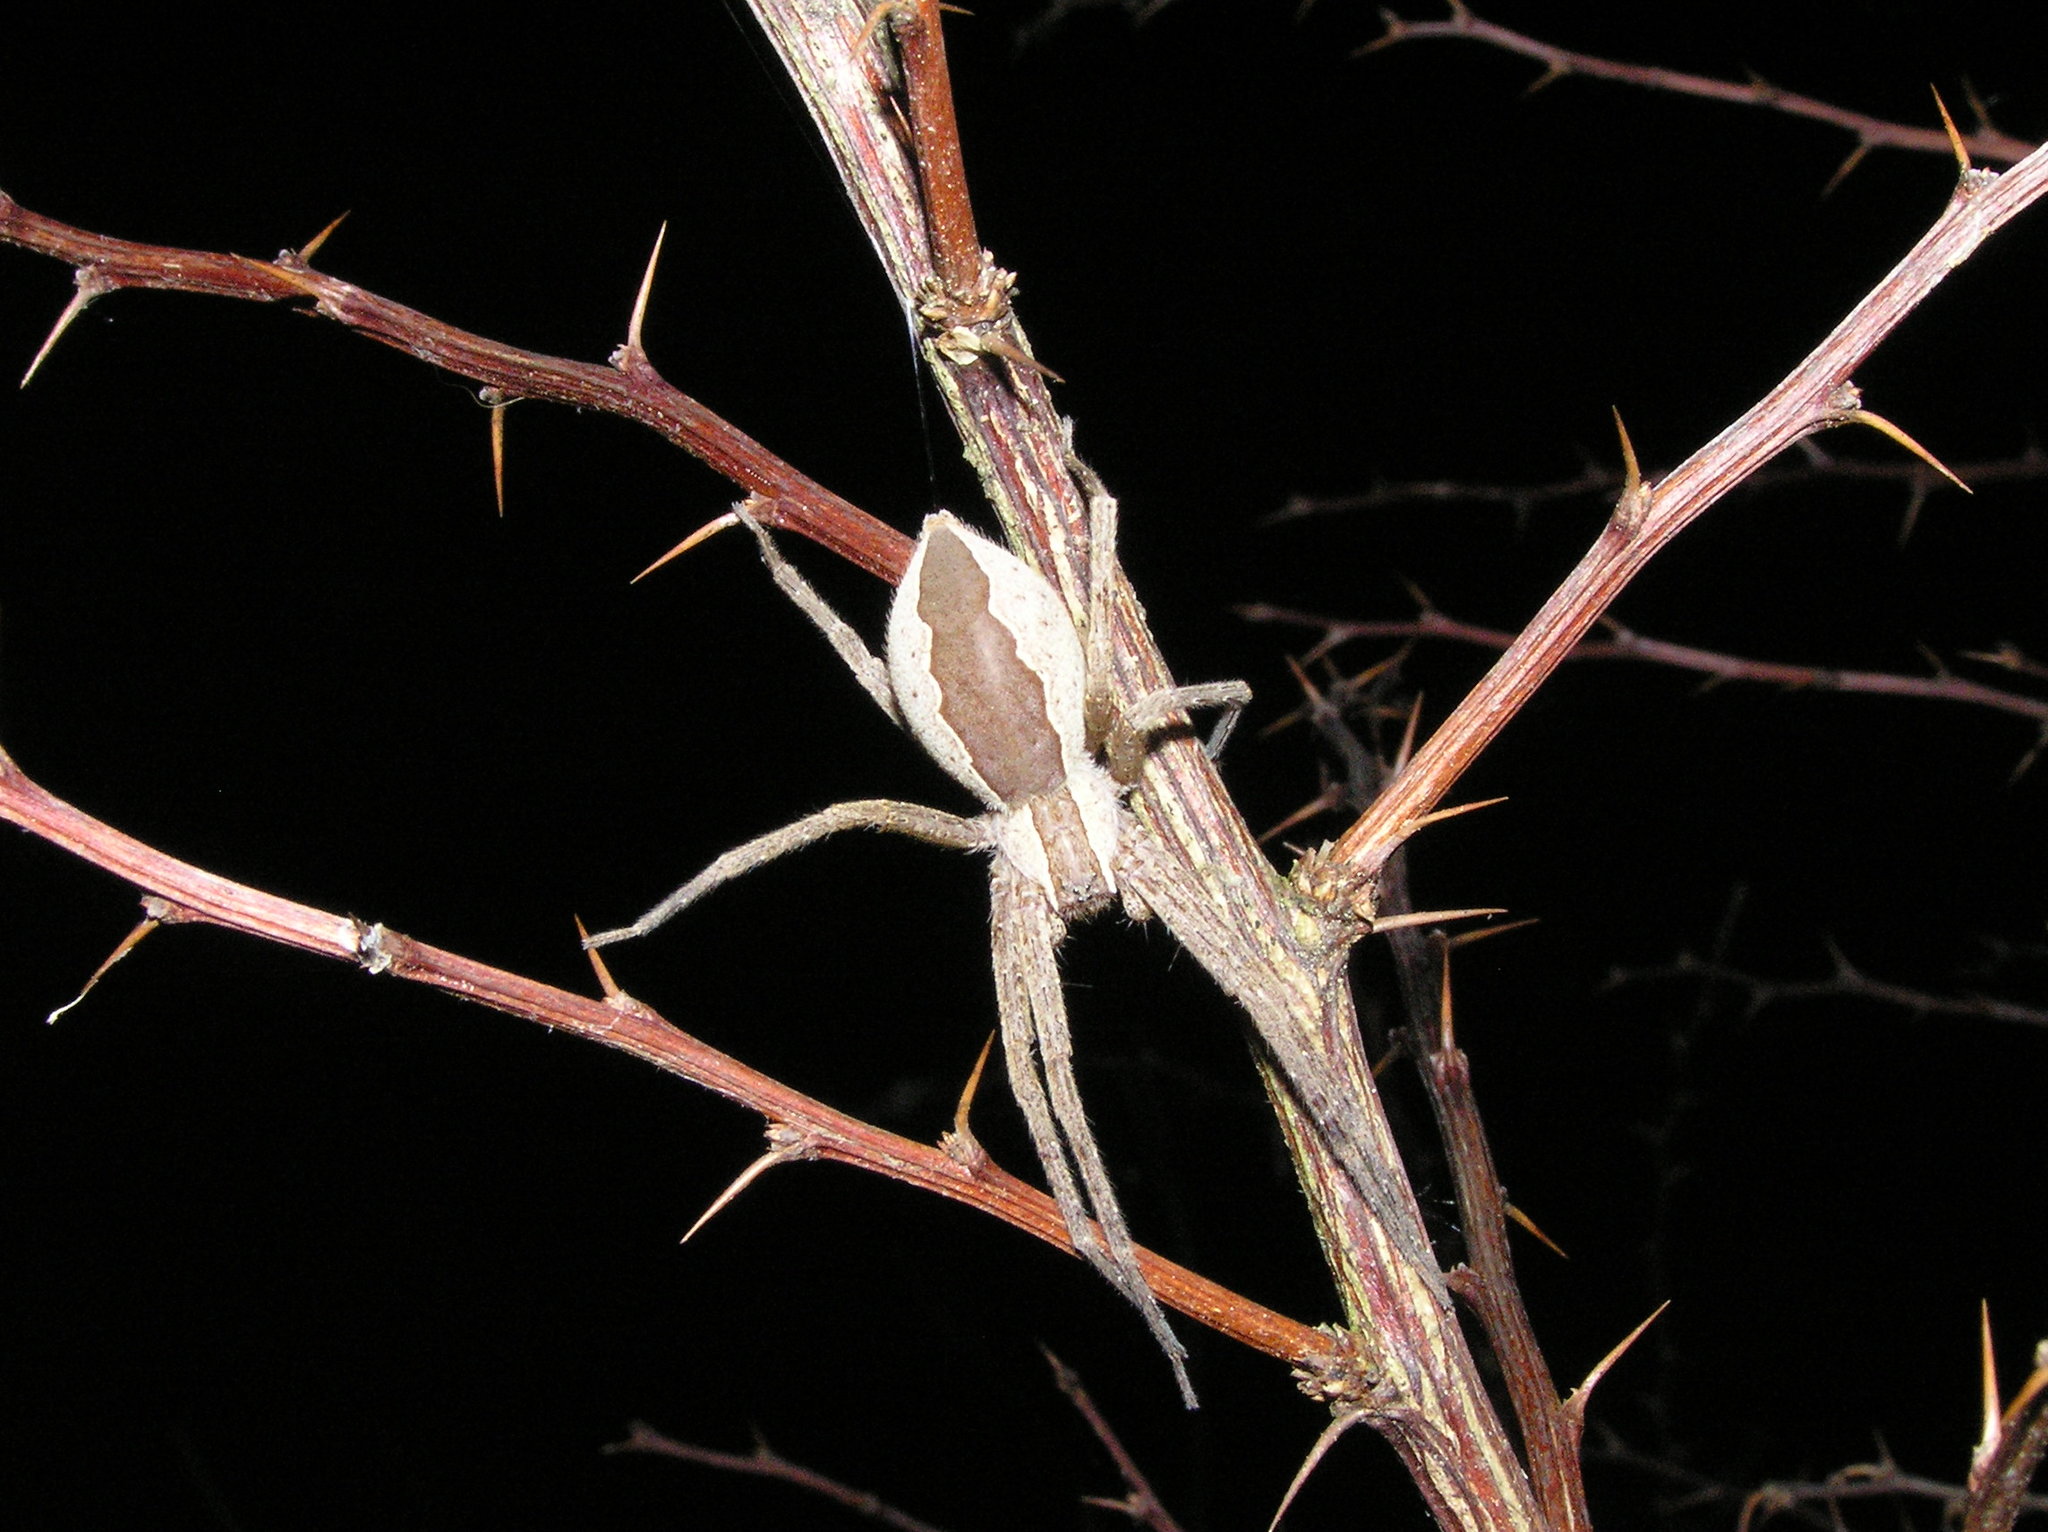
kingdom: Animalia
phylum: Arthropoda
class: Arachnida
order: Araneae
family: Pisauridae
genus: Pisaurina
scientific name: Pisaurina mira
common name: American nursery web spider
